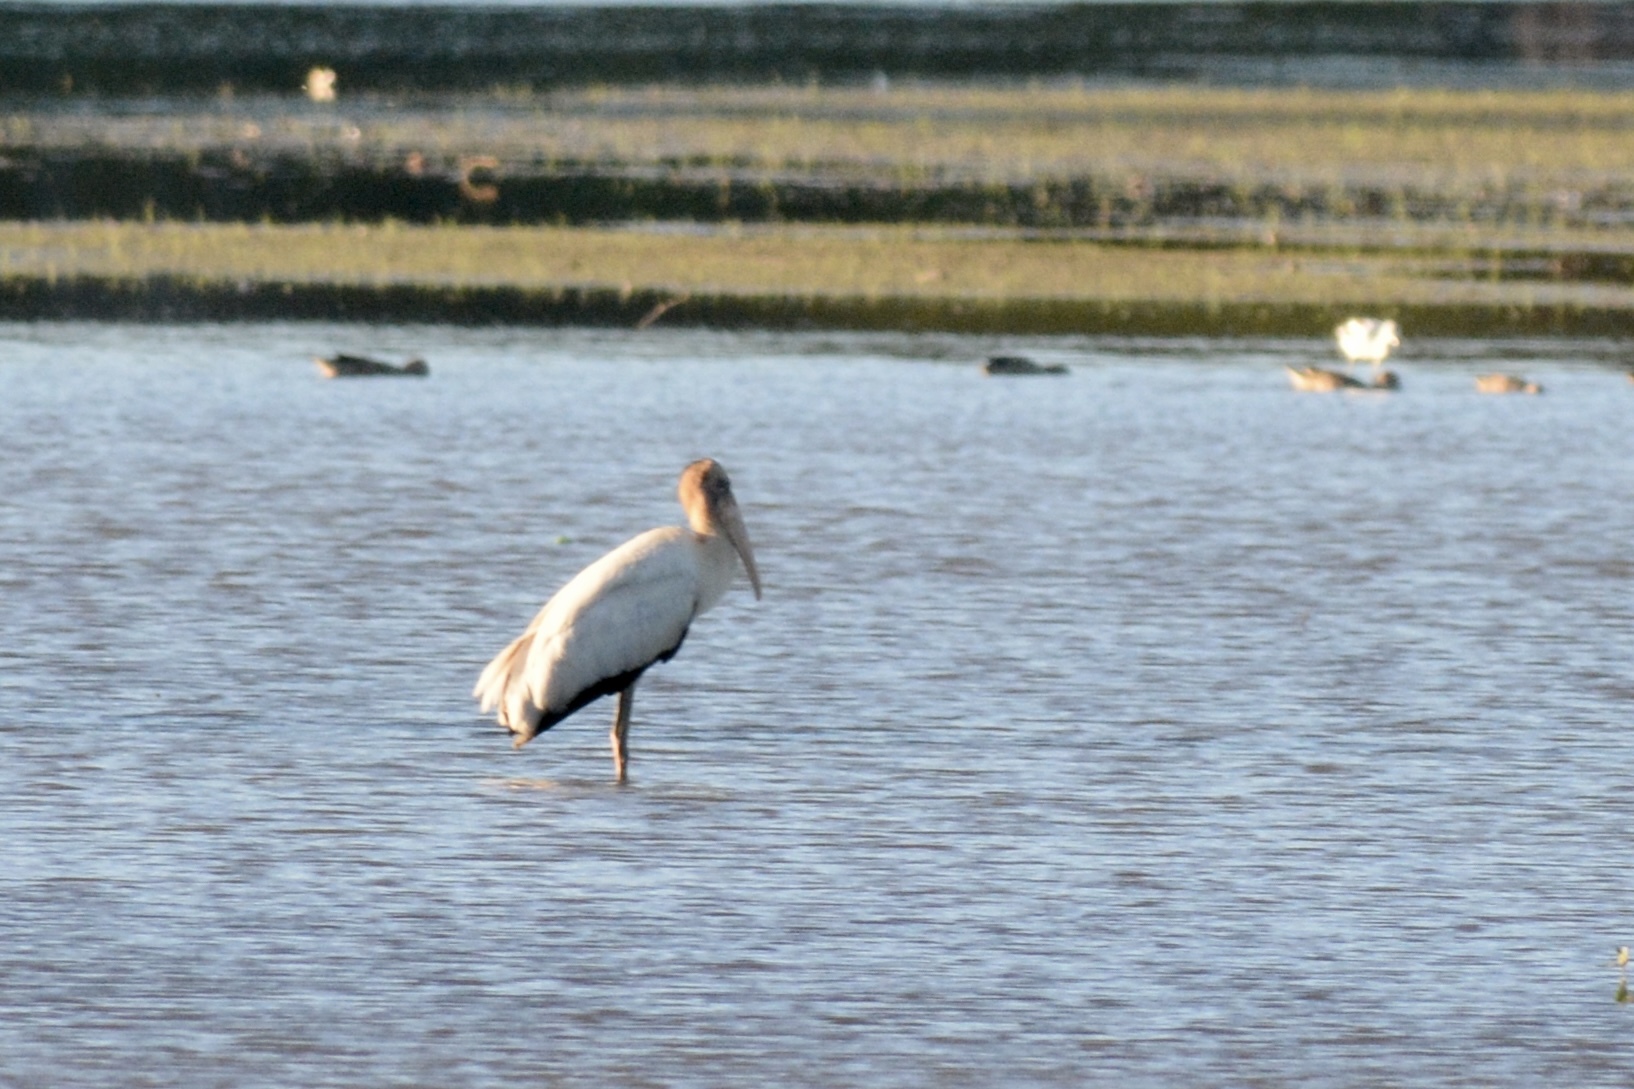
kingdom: Animalia
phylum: Chordata
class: Aves
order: Ciconiiformes
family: Ciconiidae
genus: Mycteria
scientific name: Mycteria americana
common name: Wood stork
